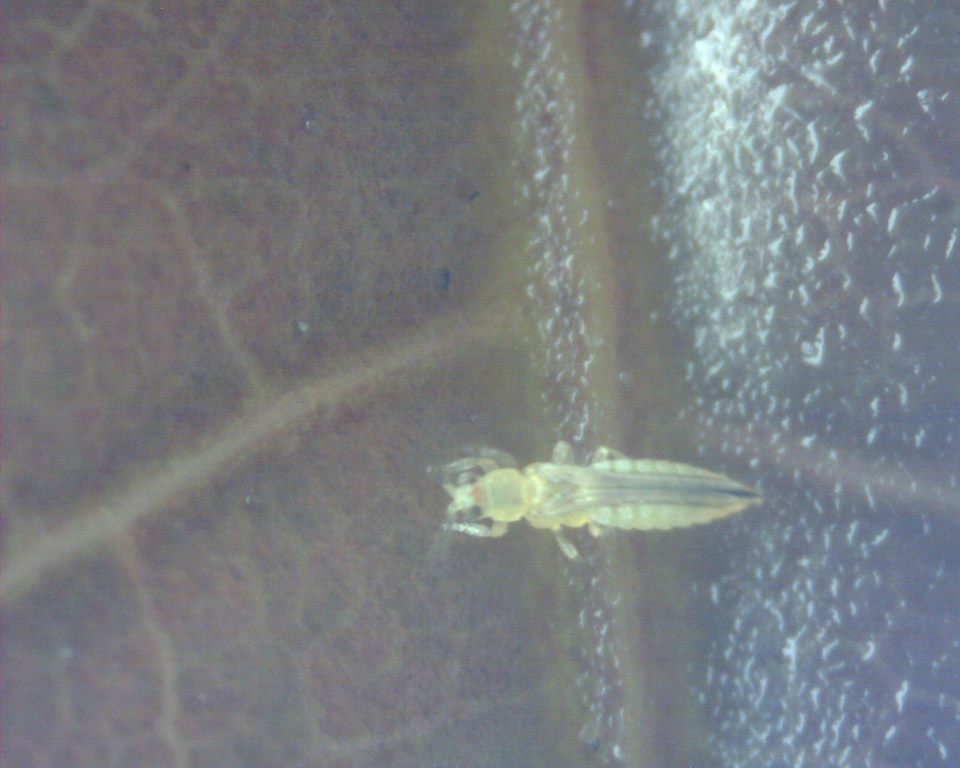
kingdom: Animalia
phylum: Arthropoda
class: Insecta
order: Thysanoptera
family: Thripidae
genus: Scirtothrips
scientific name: Scirtothrips dorsalis
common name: Thrips
